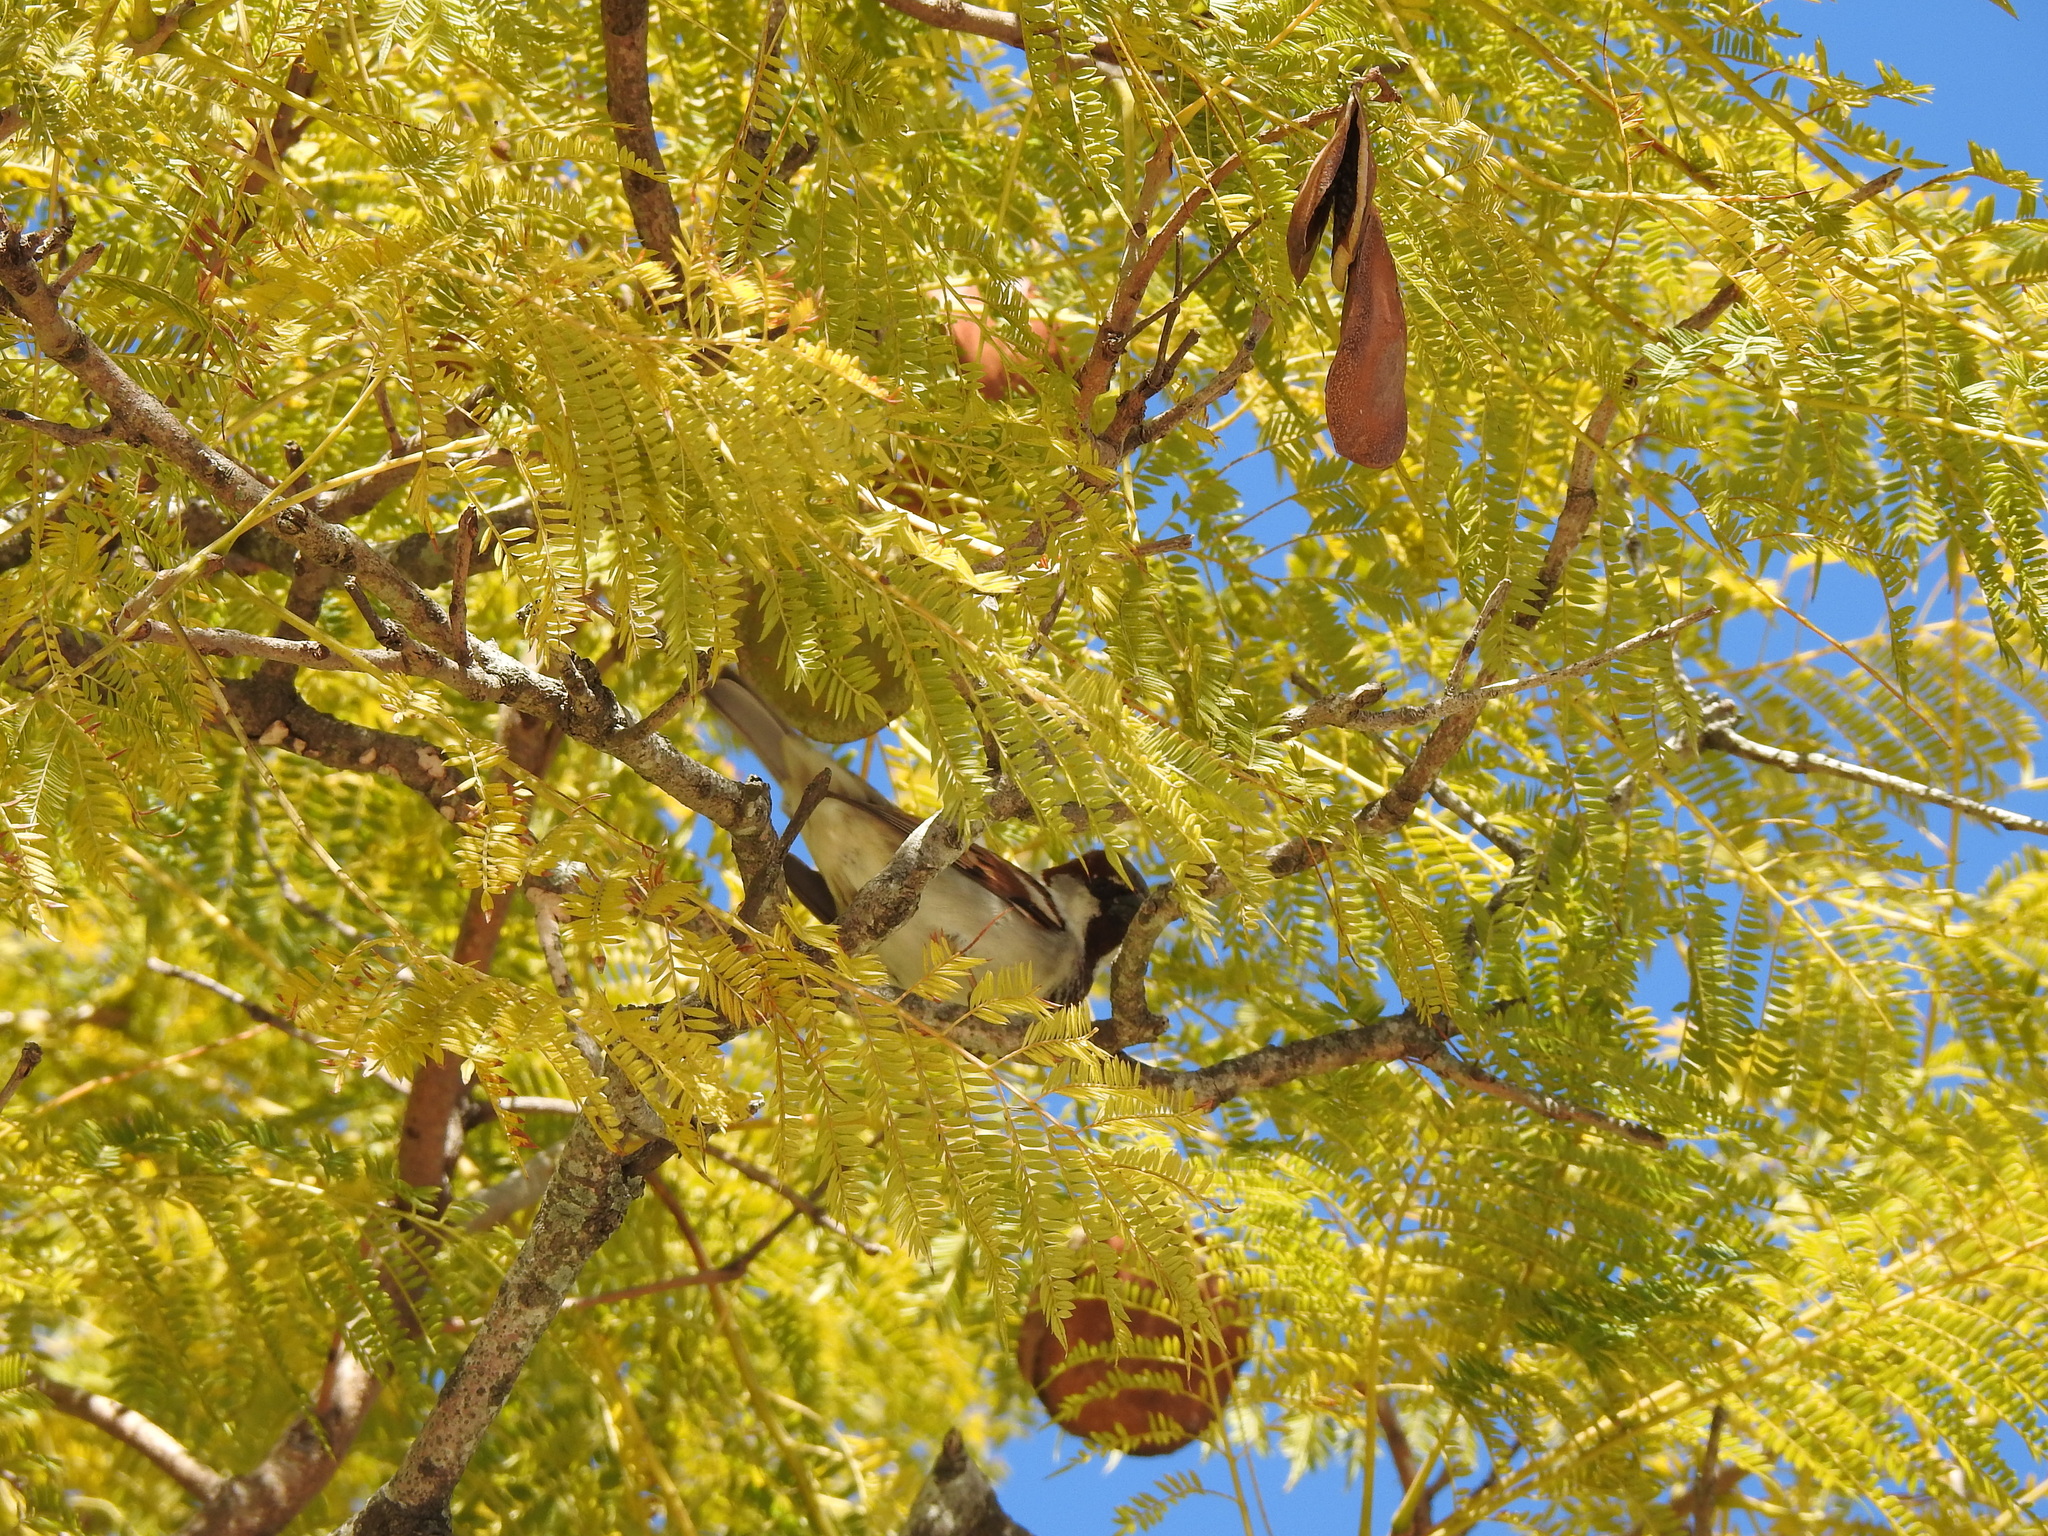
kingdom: Animalia
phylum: Chordata
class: Aves
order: Passeriformes
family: Passeridae
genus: Passer
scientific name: Passer domesticus
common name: House sparrow
